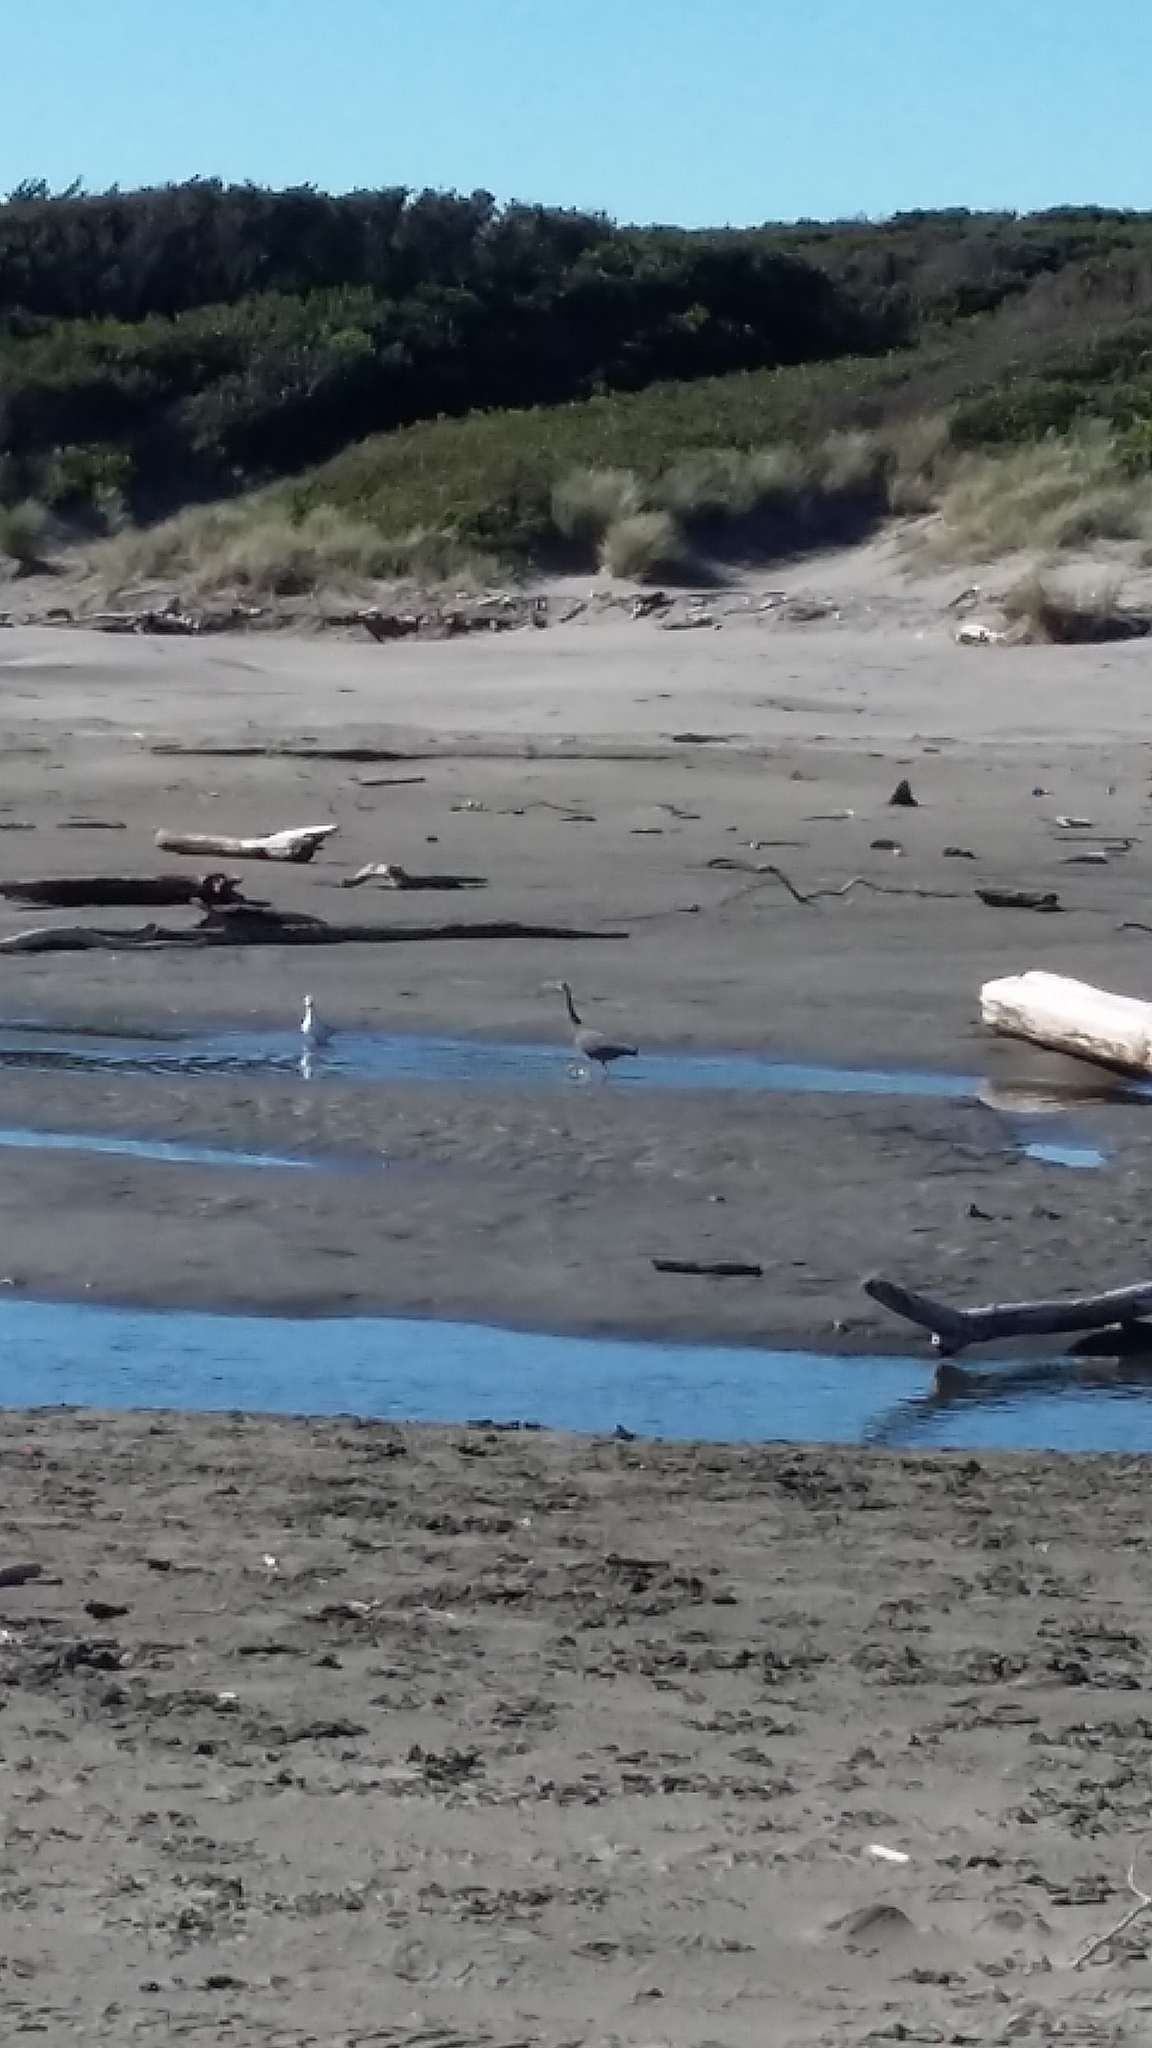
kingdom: Animalia
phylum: Chordata
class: Aves
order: Pelecaniformes
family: Ardeidae
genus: Egretta
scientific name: Egretta novaehollandiae
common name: White-faced heron
